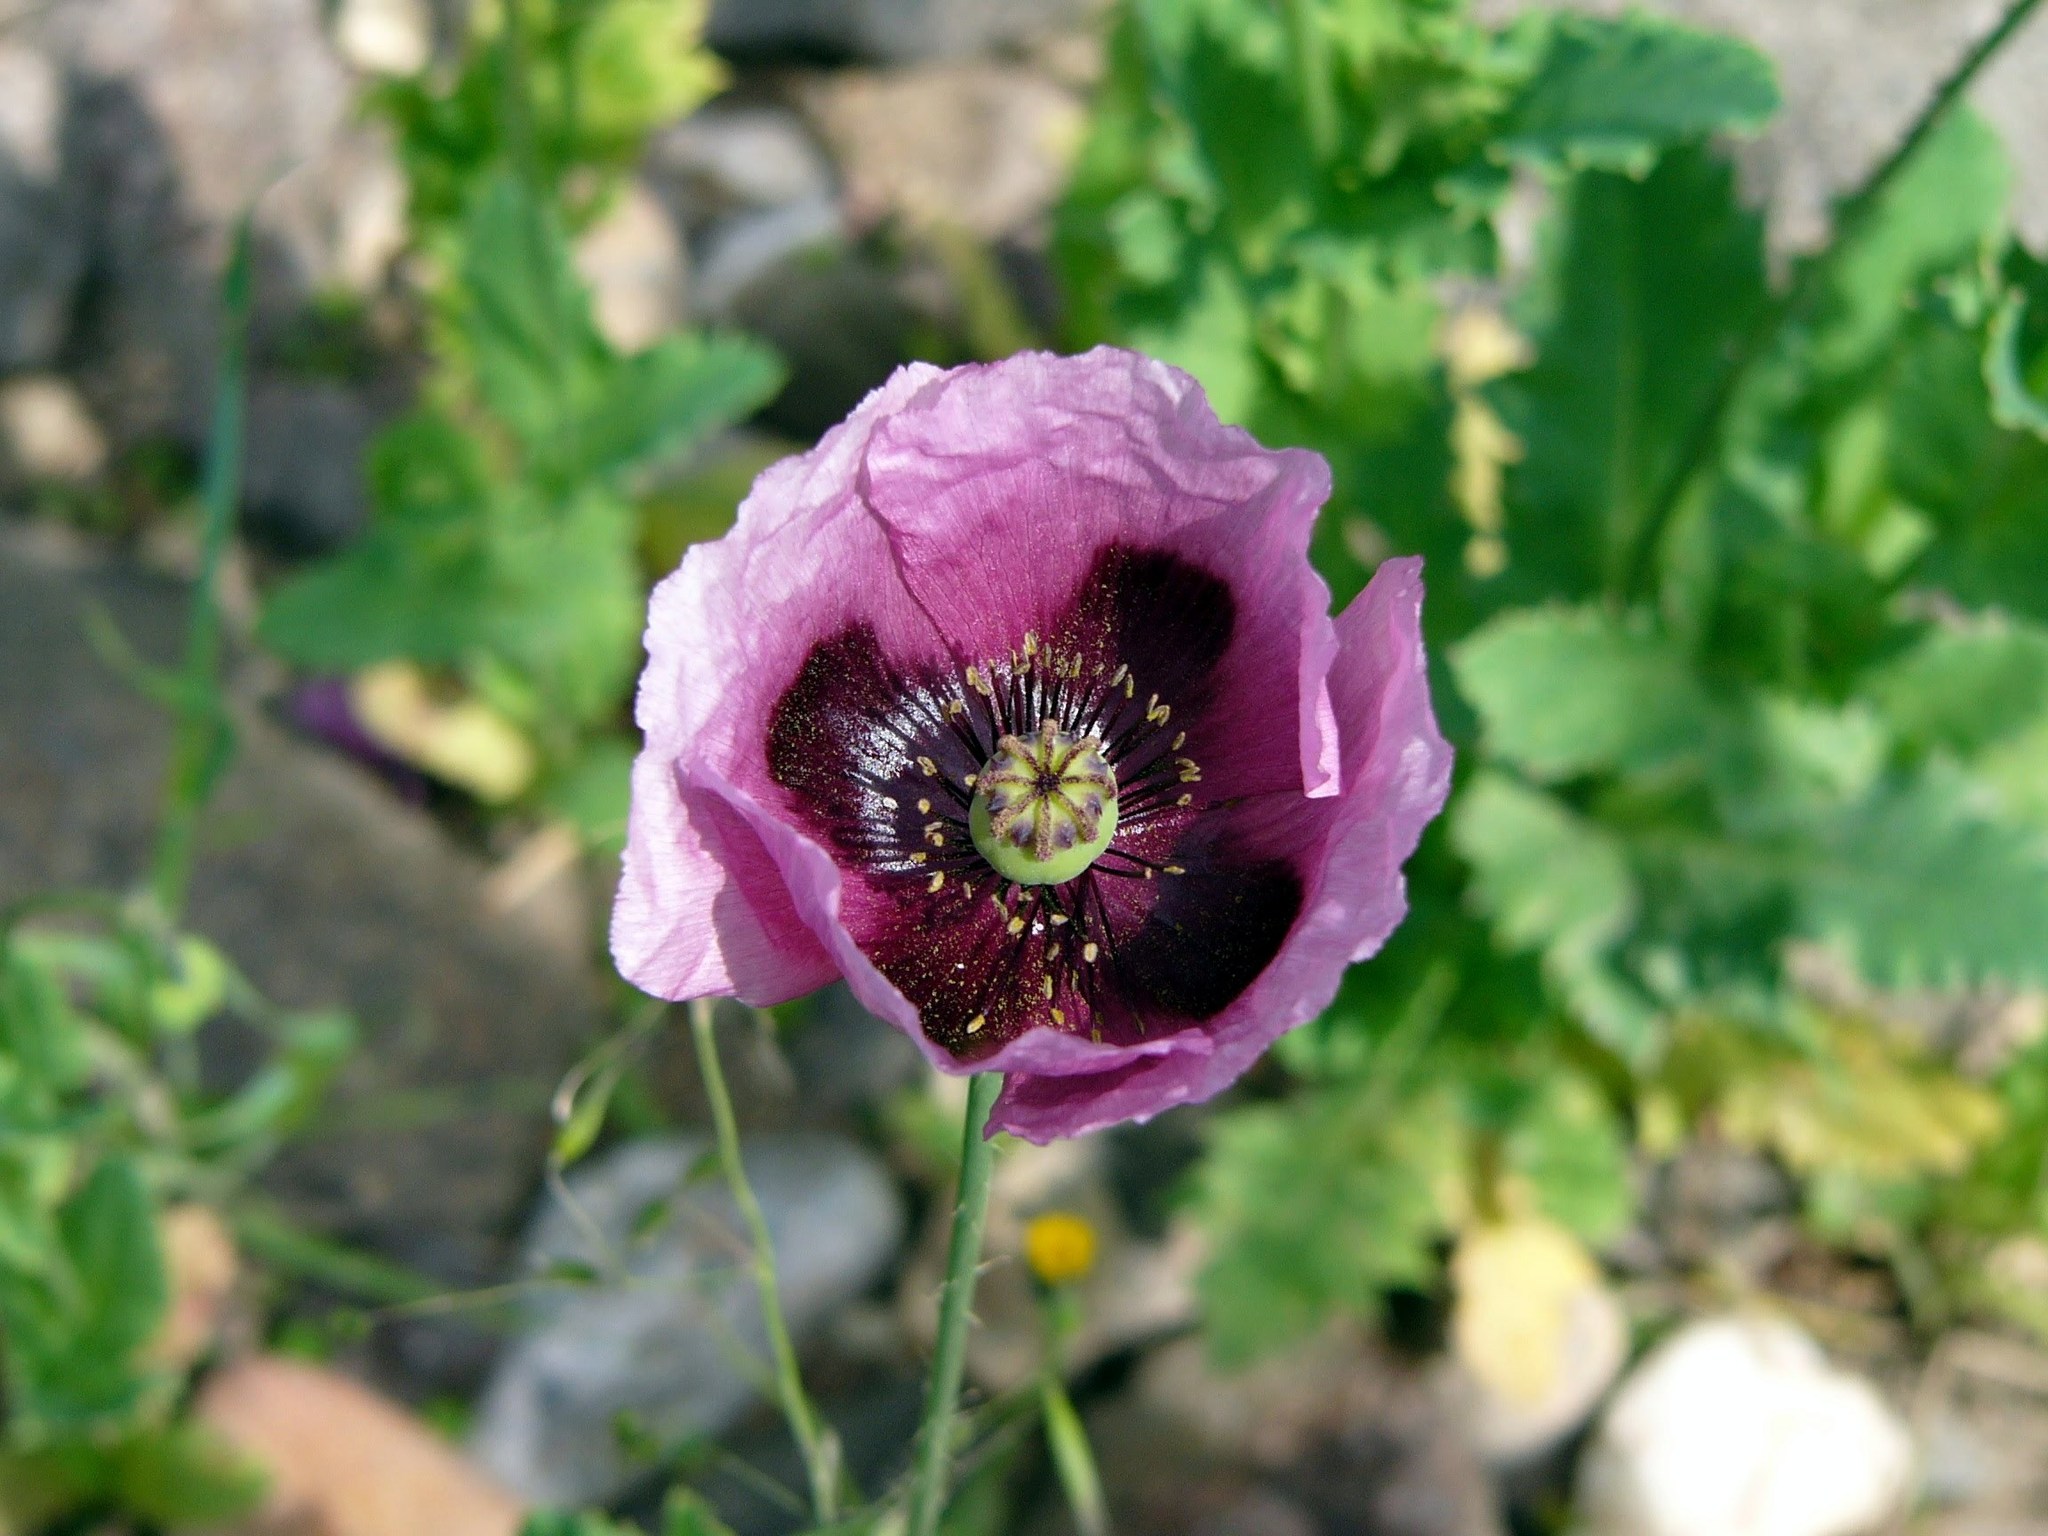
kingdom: Plantae
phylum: Tracheophyta
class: Magnoliopsida
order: Ranunculales
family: Papaveraceae
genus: Papaver
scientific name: Papaver somniferum
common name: Opium poppy
